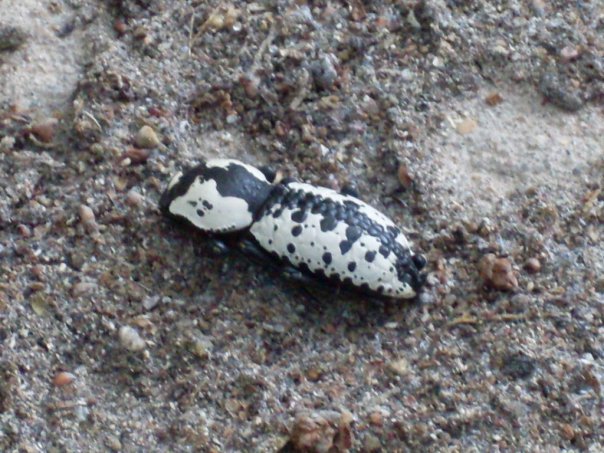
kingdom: Animalia
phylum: Arthropoda
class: Insecta
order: Coleoptera
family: Zopheridae
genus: Zopherus
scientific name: Zopherus nodulosus
